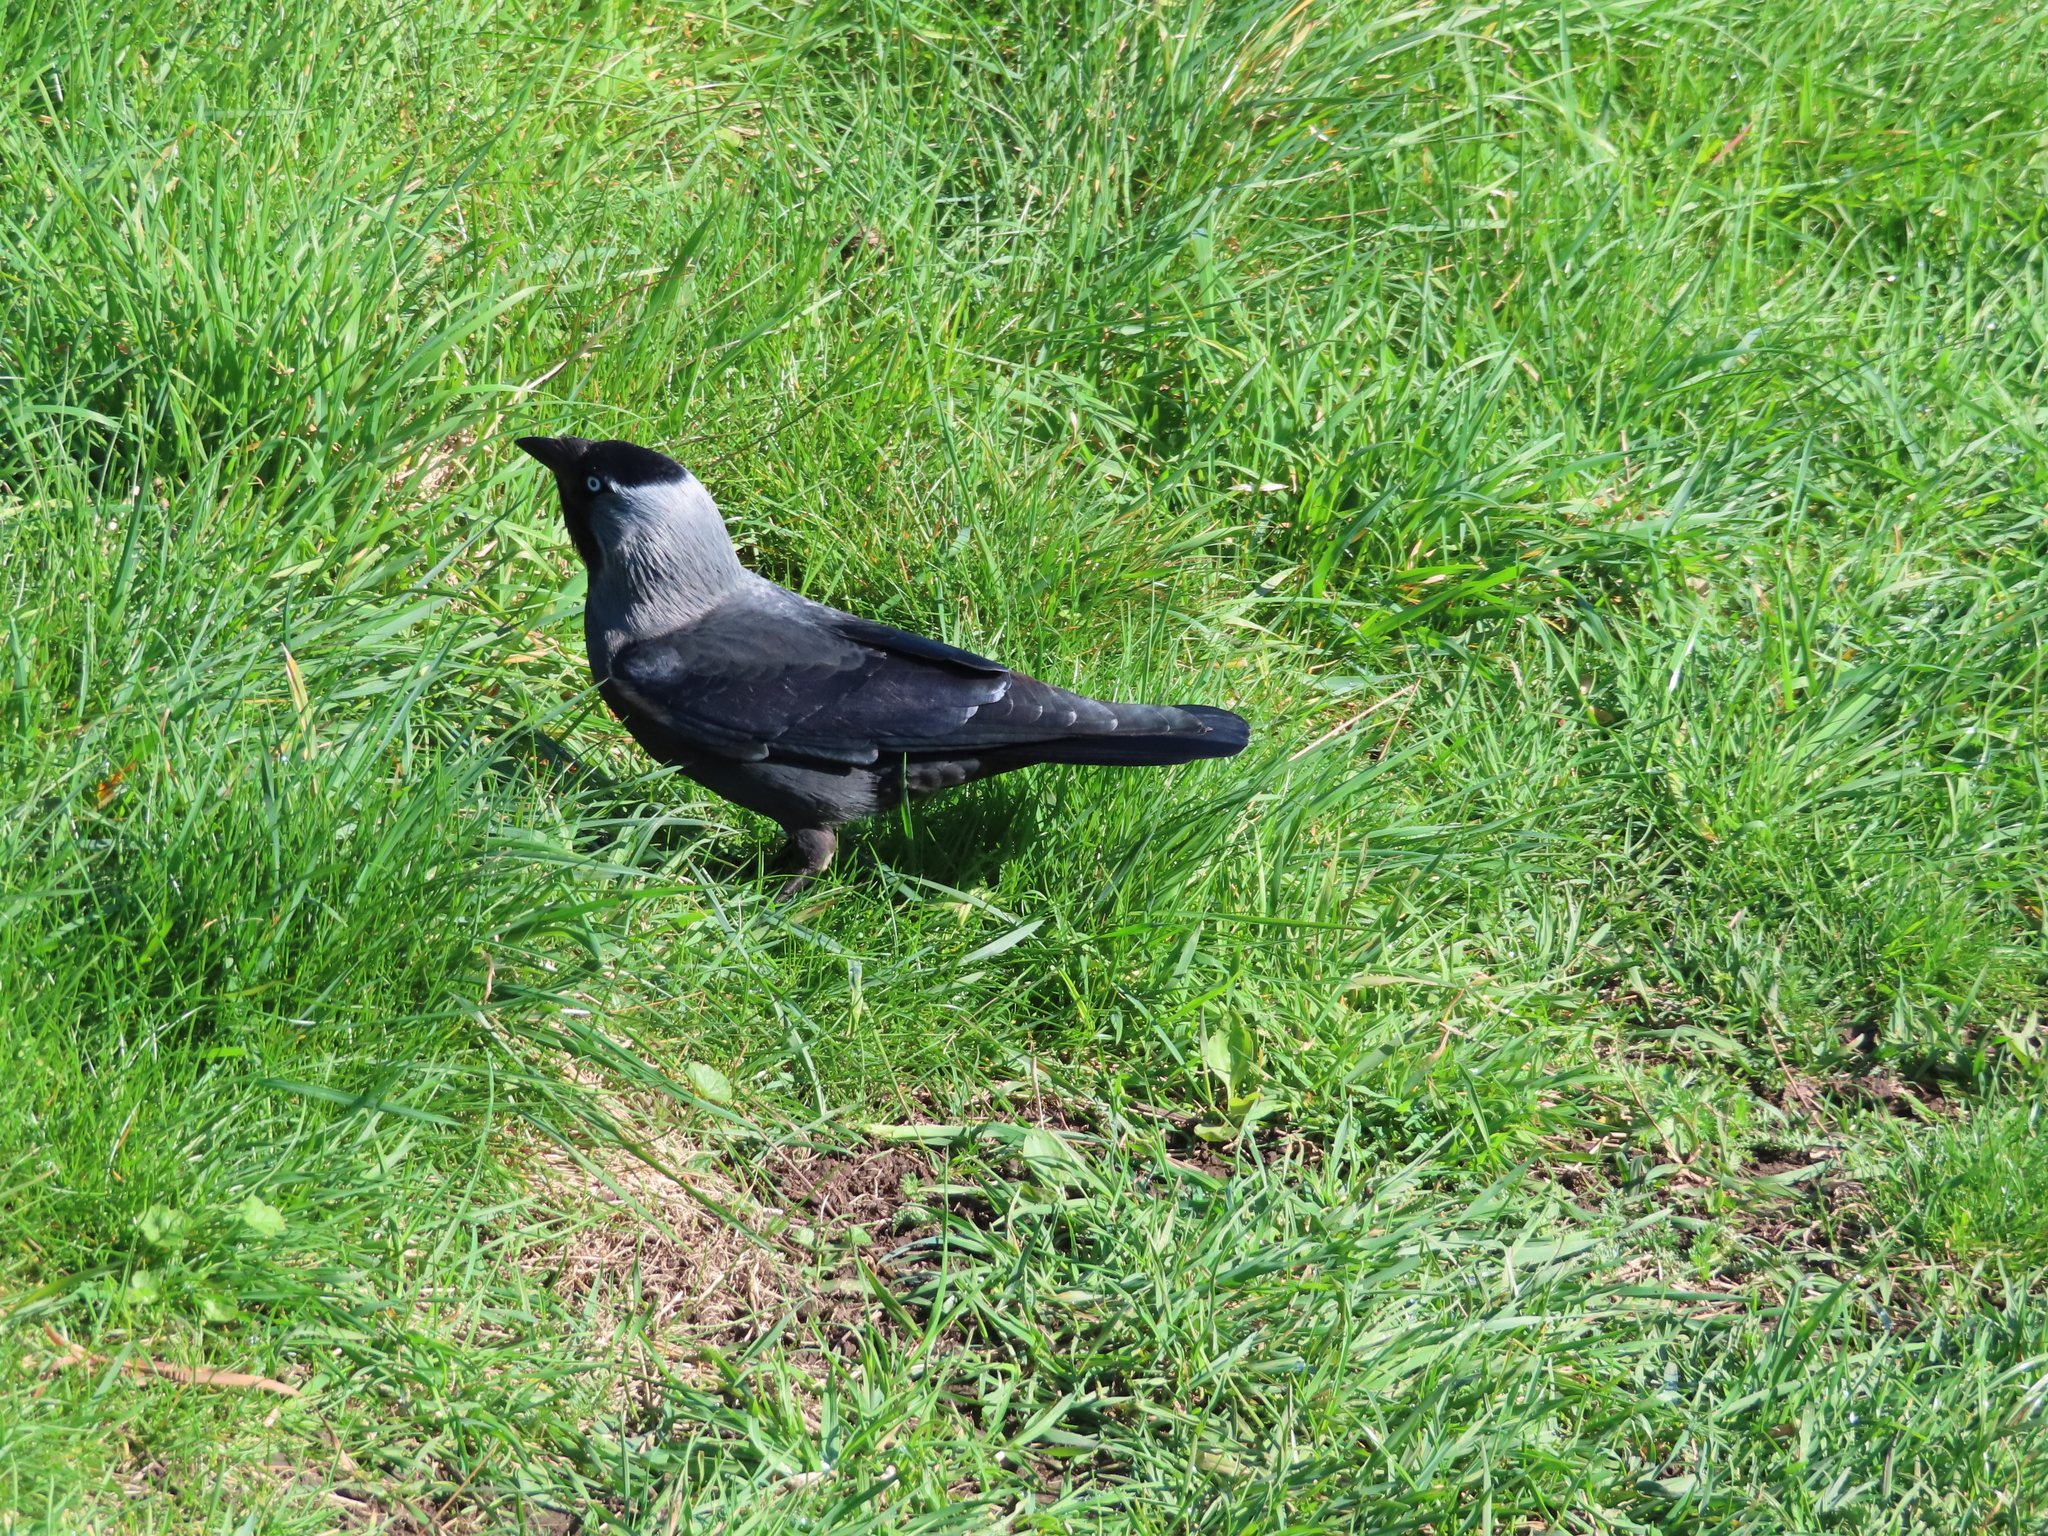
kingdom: Animalia
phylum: Chordata
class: Aves
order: Passeriformes
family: Corvidae
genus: Coloeus
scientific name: Coloeus monedula
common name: Western jackdaw
